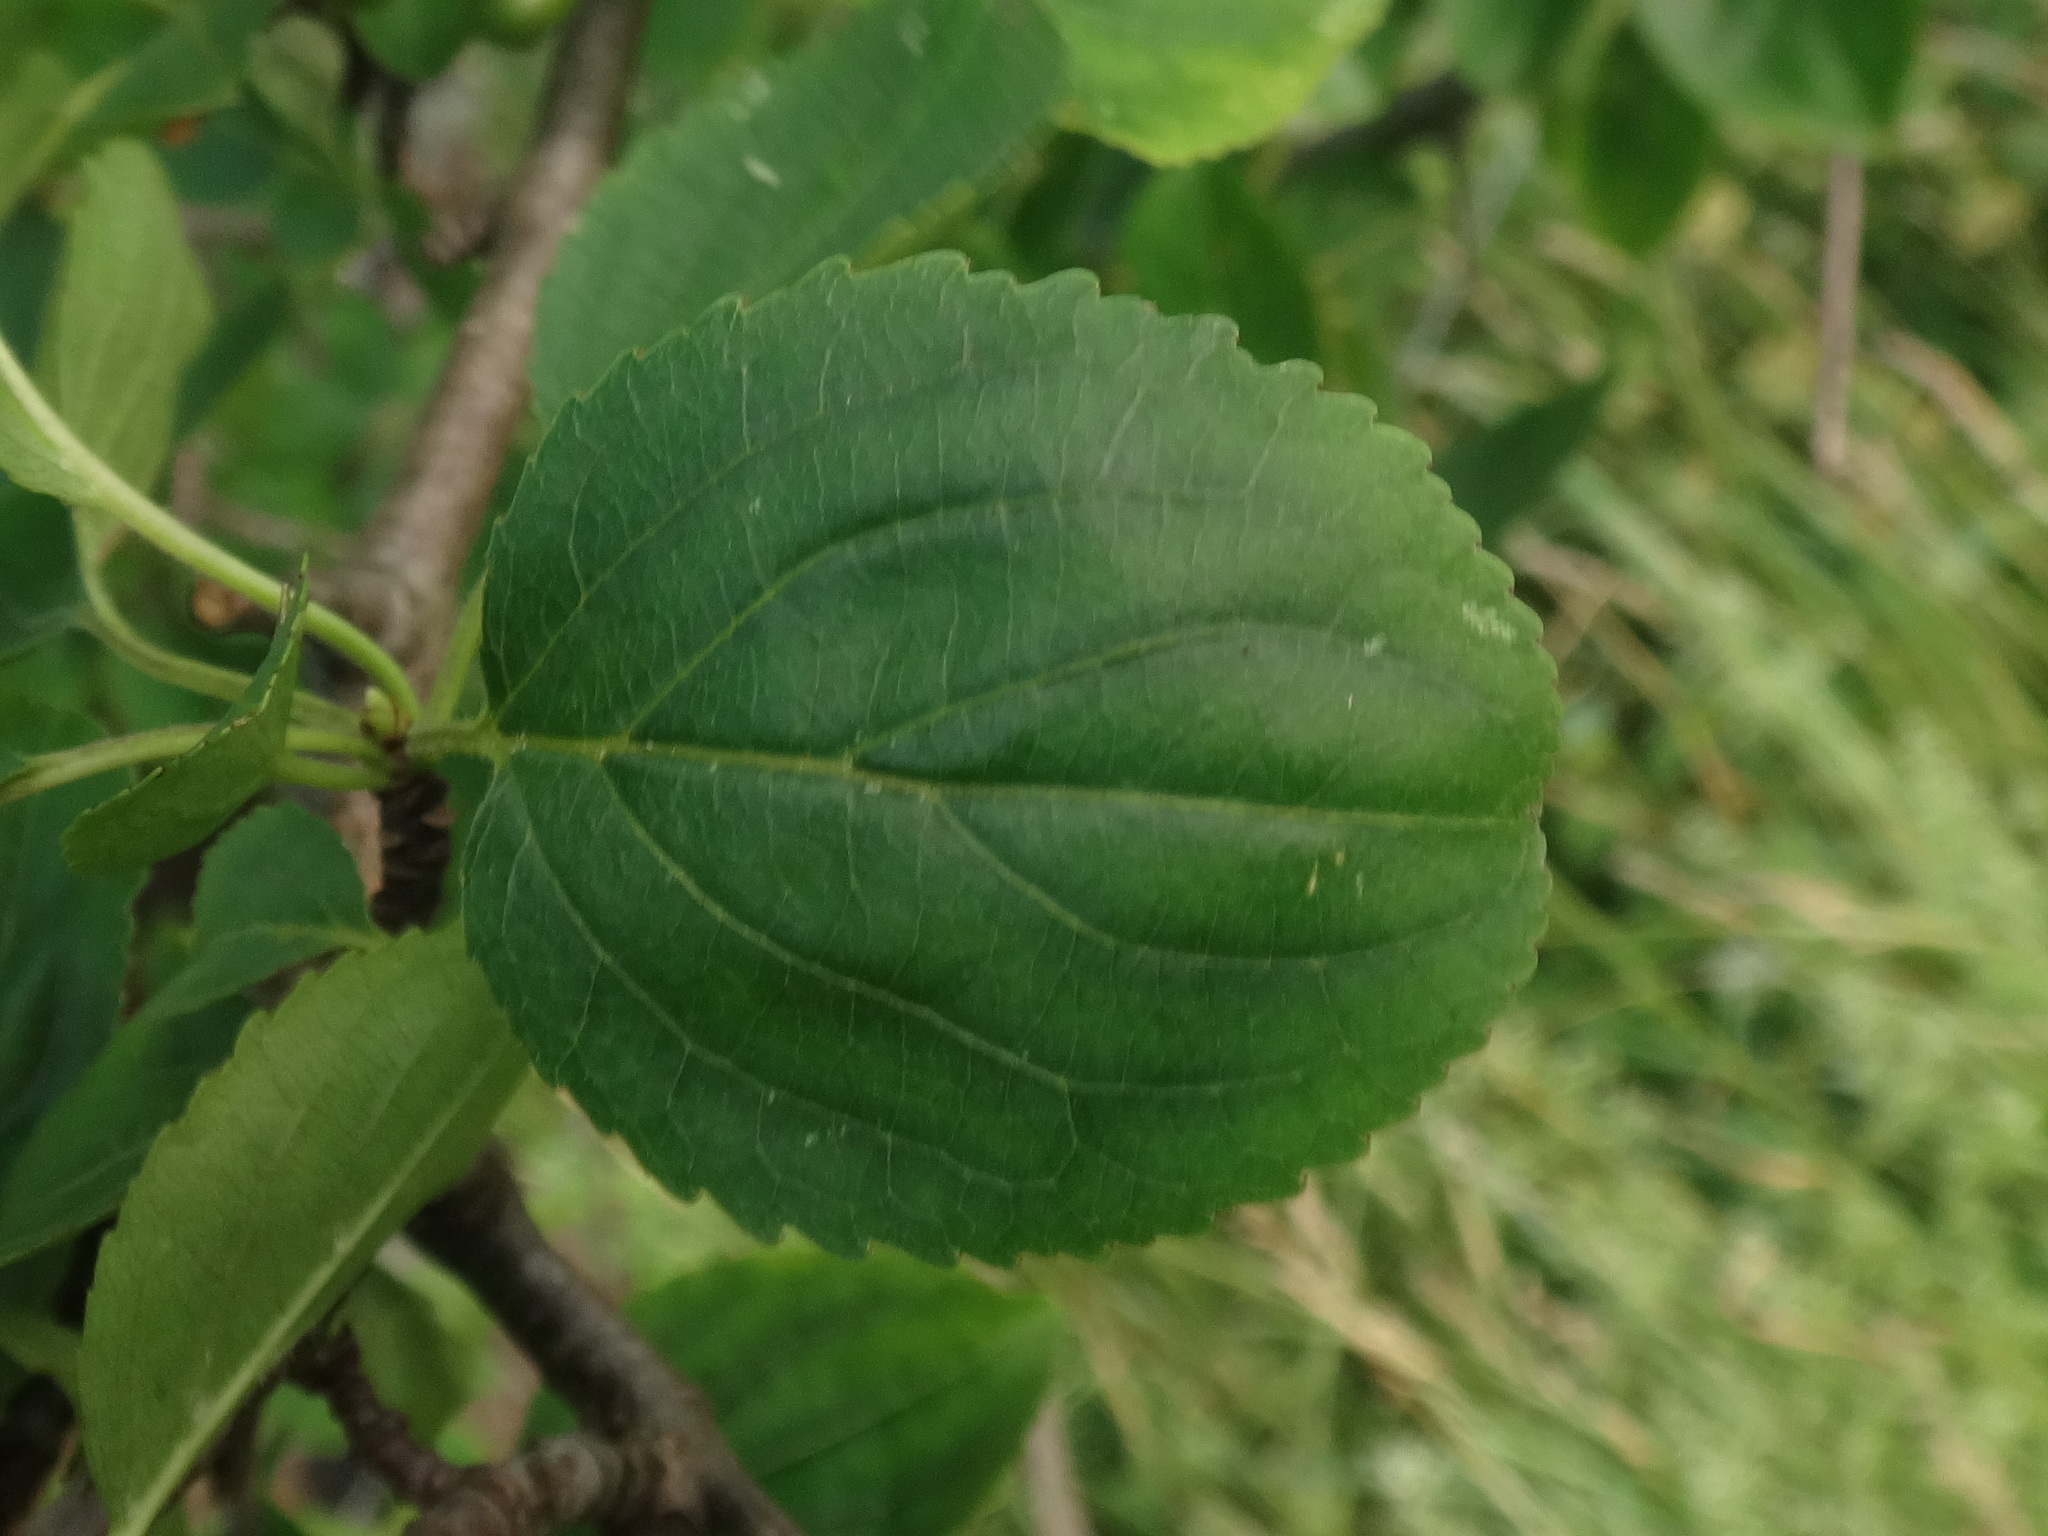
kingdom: Plantae
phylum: Tracheophyta
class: Magnoliopsida
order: Rosales
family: Rhamnaceae
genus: Rhamnus
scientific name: Rhamnus cathartica
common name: Common buckthorn
